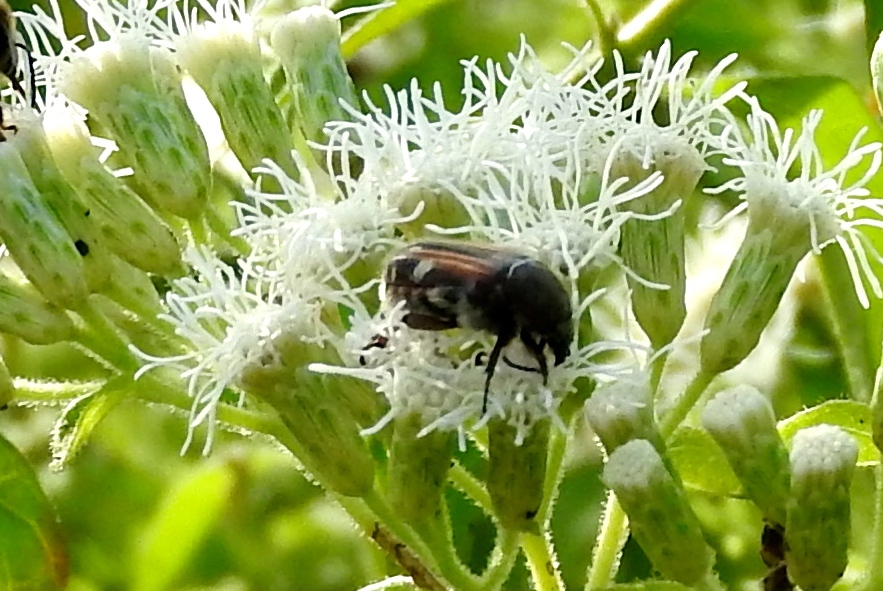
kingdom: Animalia
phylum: Arthropoda
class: Insecta
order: Coleoptera
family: Scarabaeidae
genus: Euphoria
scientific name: Euphoria pulchella
